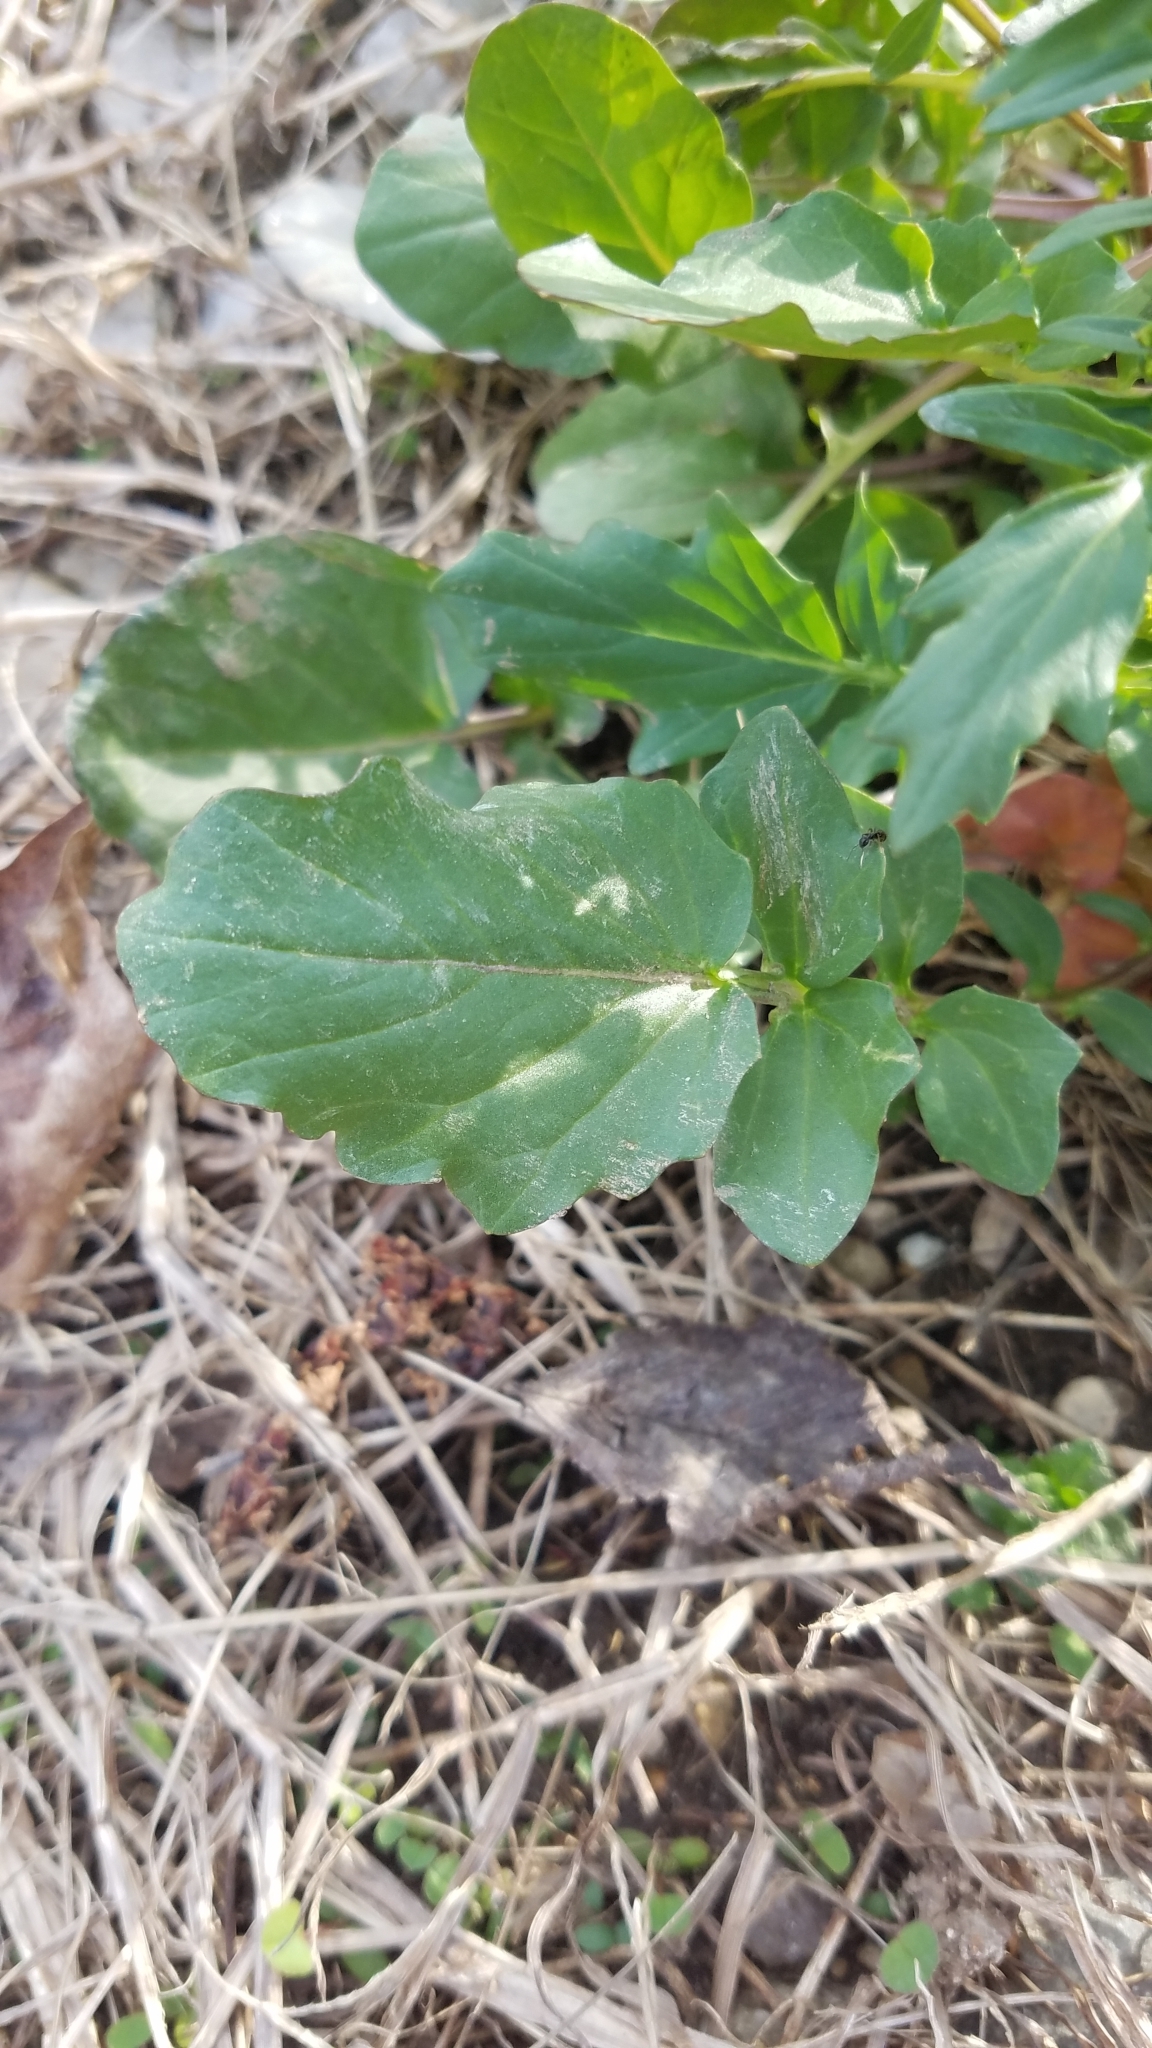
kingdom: Plantae
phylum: Tracheophyta
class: Magnoliopsida
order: Brassicales
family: Brassicaceae
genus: Barbarea
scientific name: Barbarea vulgaris
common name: Cressy-greens
